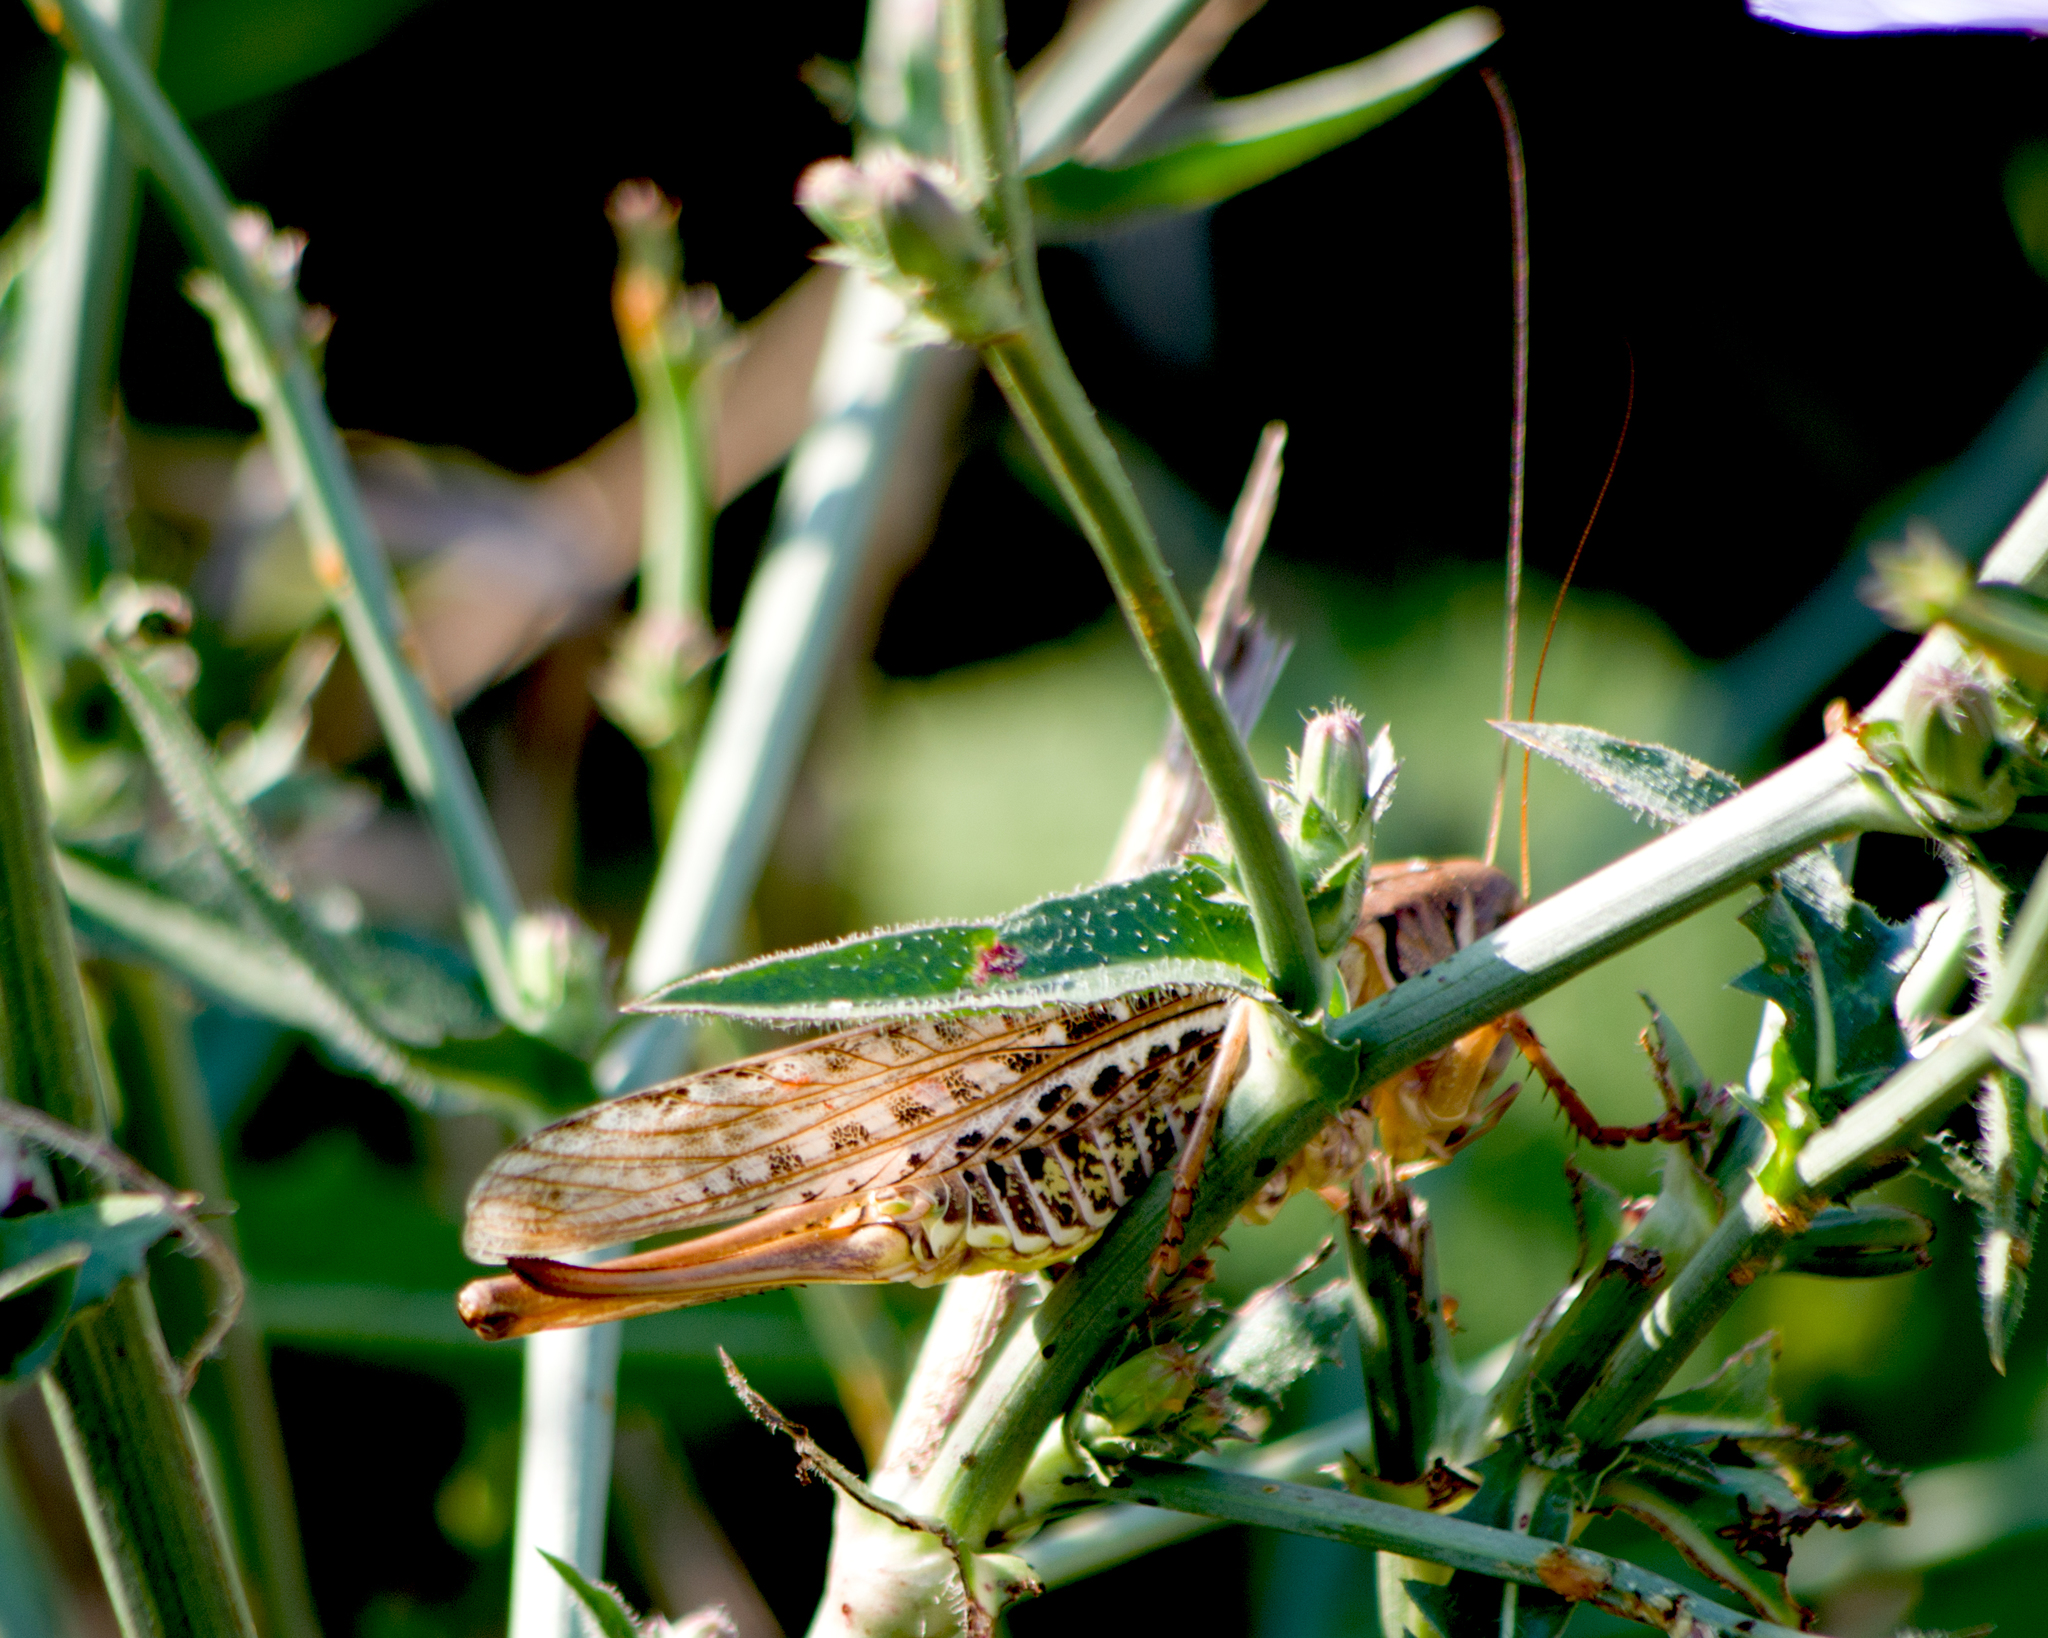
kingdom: Animalia
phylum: Arthropoda
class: Insecta
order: Orthoptera
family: Tettigoniidae
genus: Decticus
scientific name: Decticus albifrons
